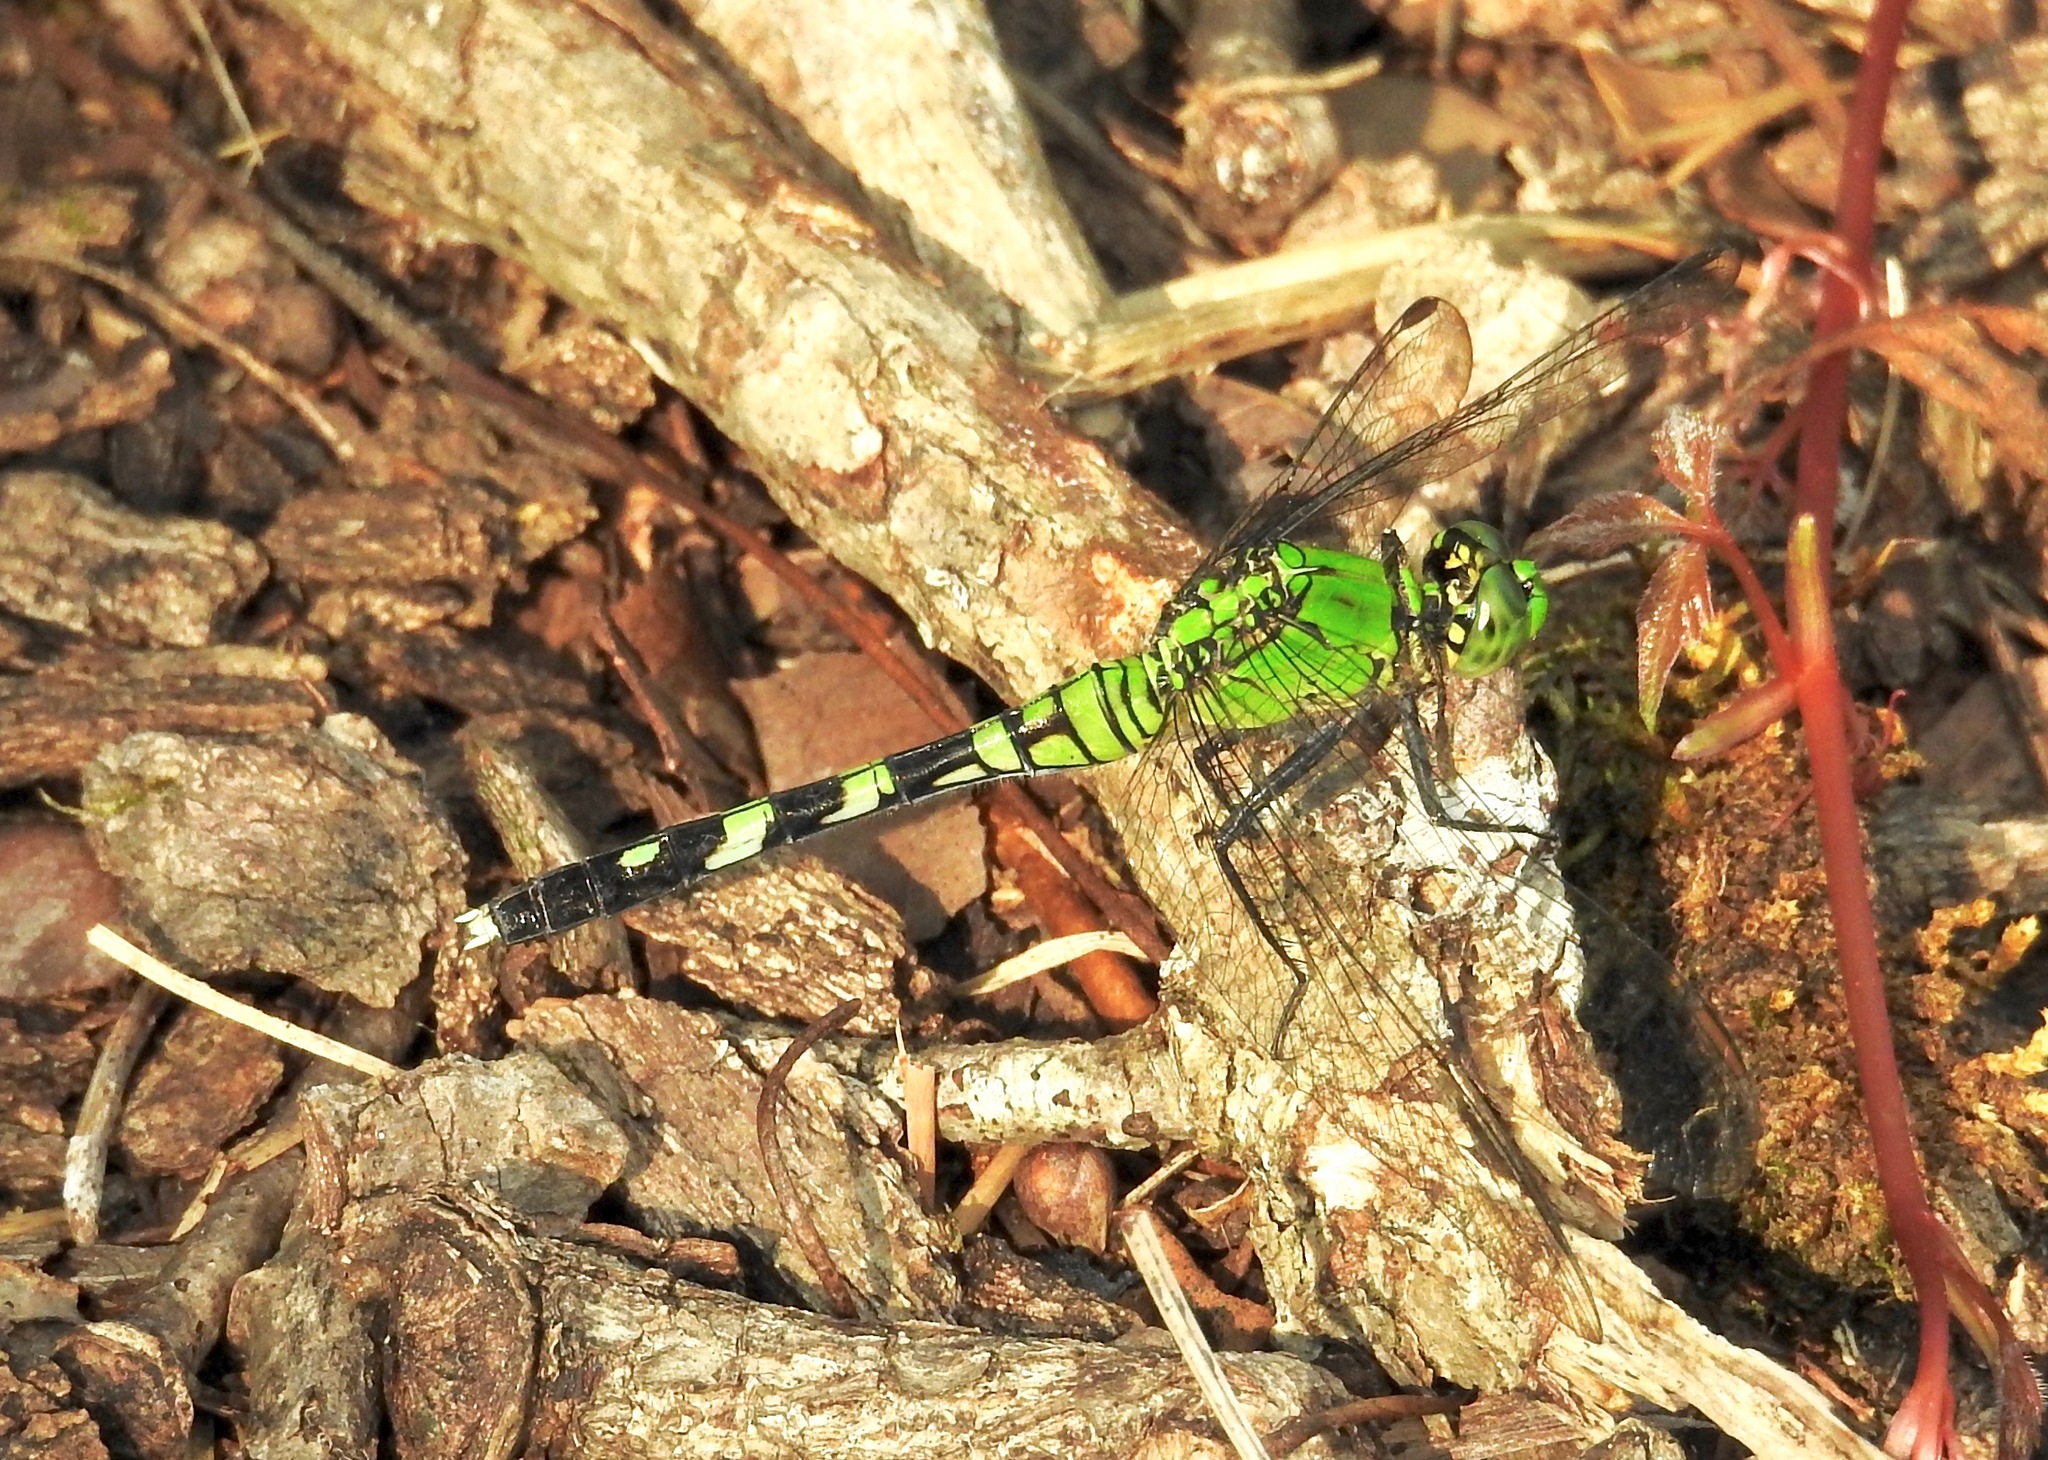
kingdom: Animalia
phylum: Arthropoda
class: Insecta
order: Odonata
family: Libellulidae
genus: Erythemis
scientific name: Erythemis simplicicollis
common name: Eastern pondhawk
